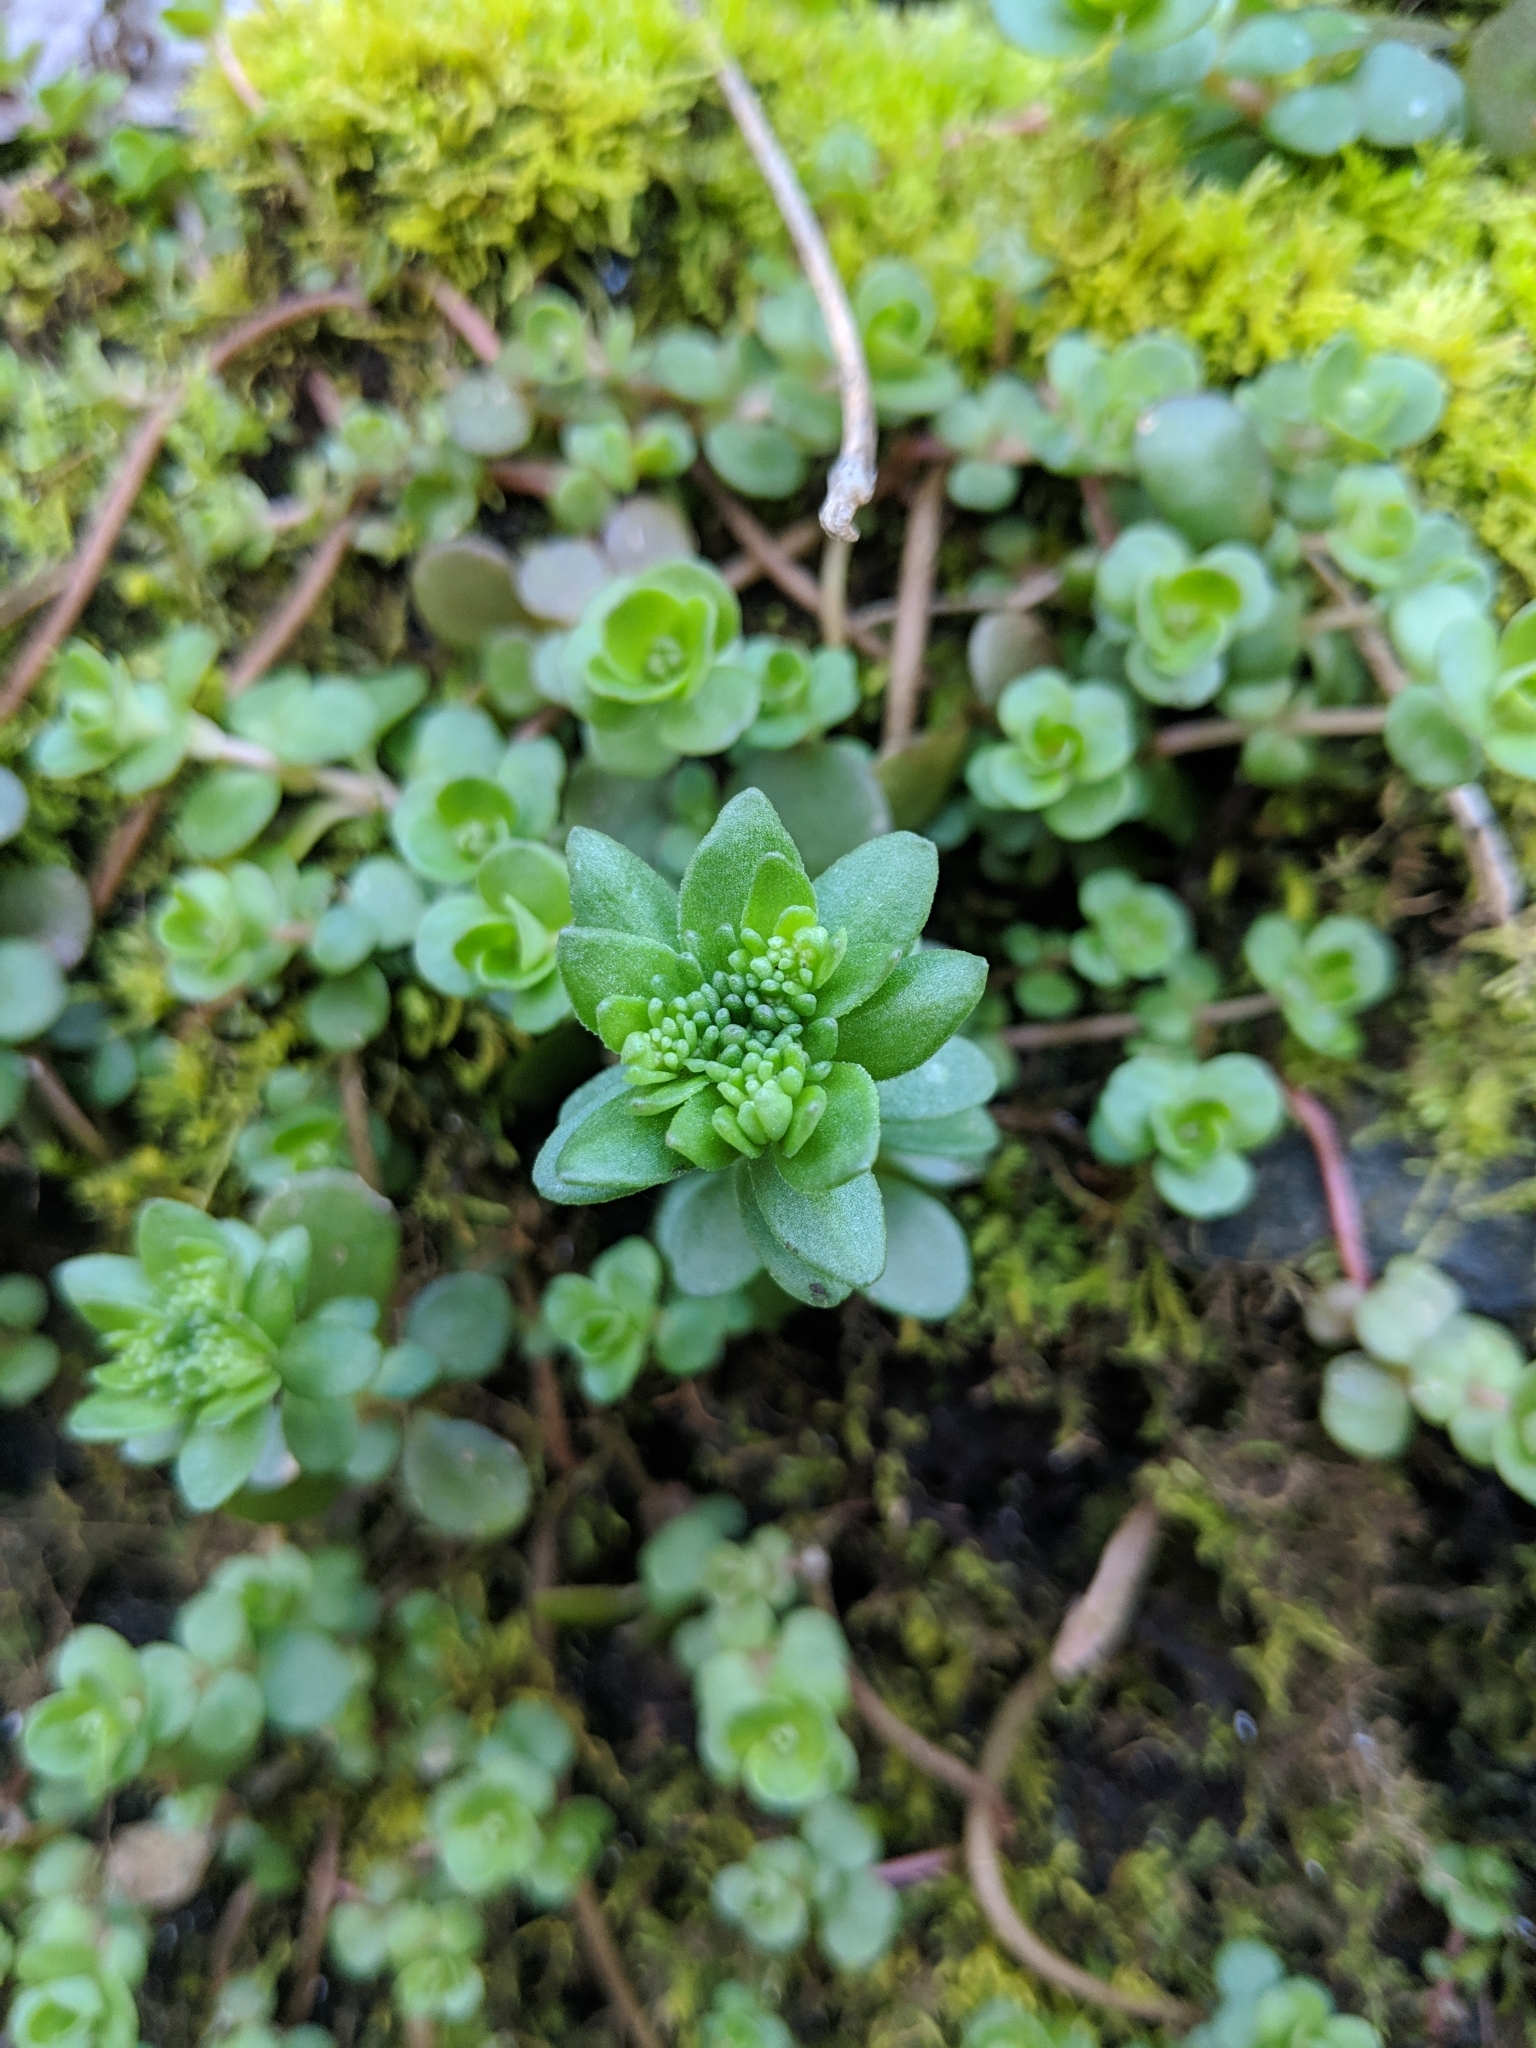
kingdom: Plantae
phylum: Tracheophyta
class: Magnoliopsida
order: Saxifragales
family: Crassulaceae
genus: Sedum
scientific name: Sedum ternatum
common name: Wild stonecrop
